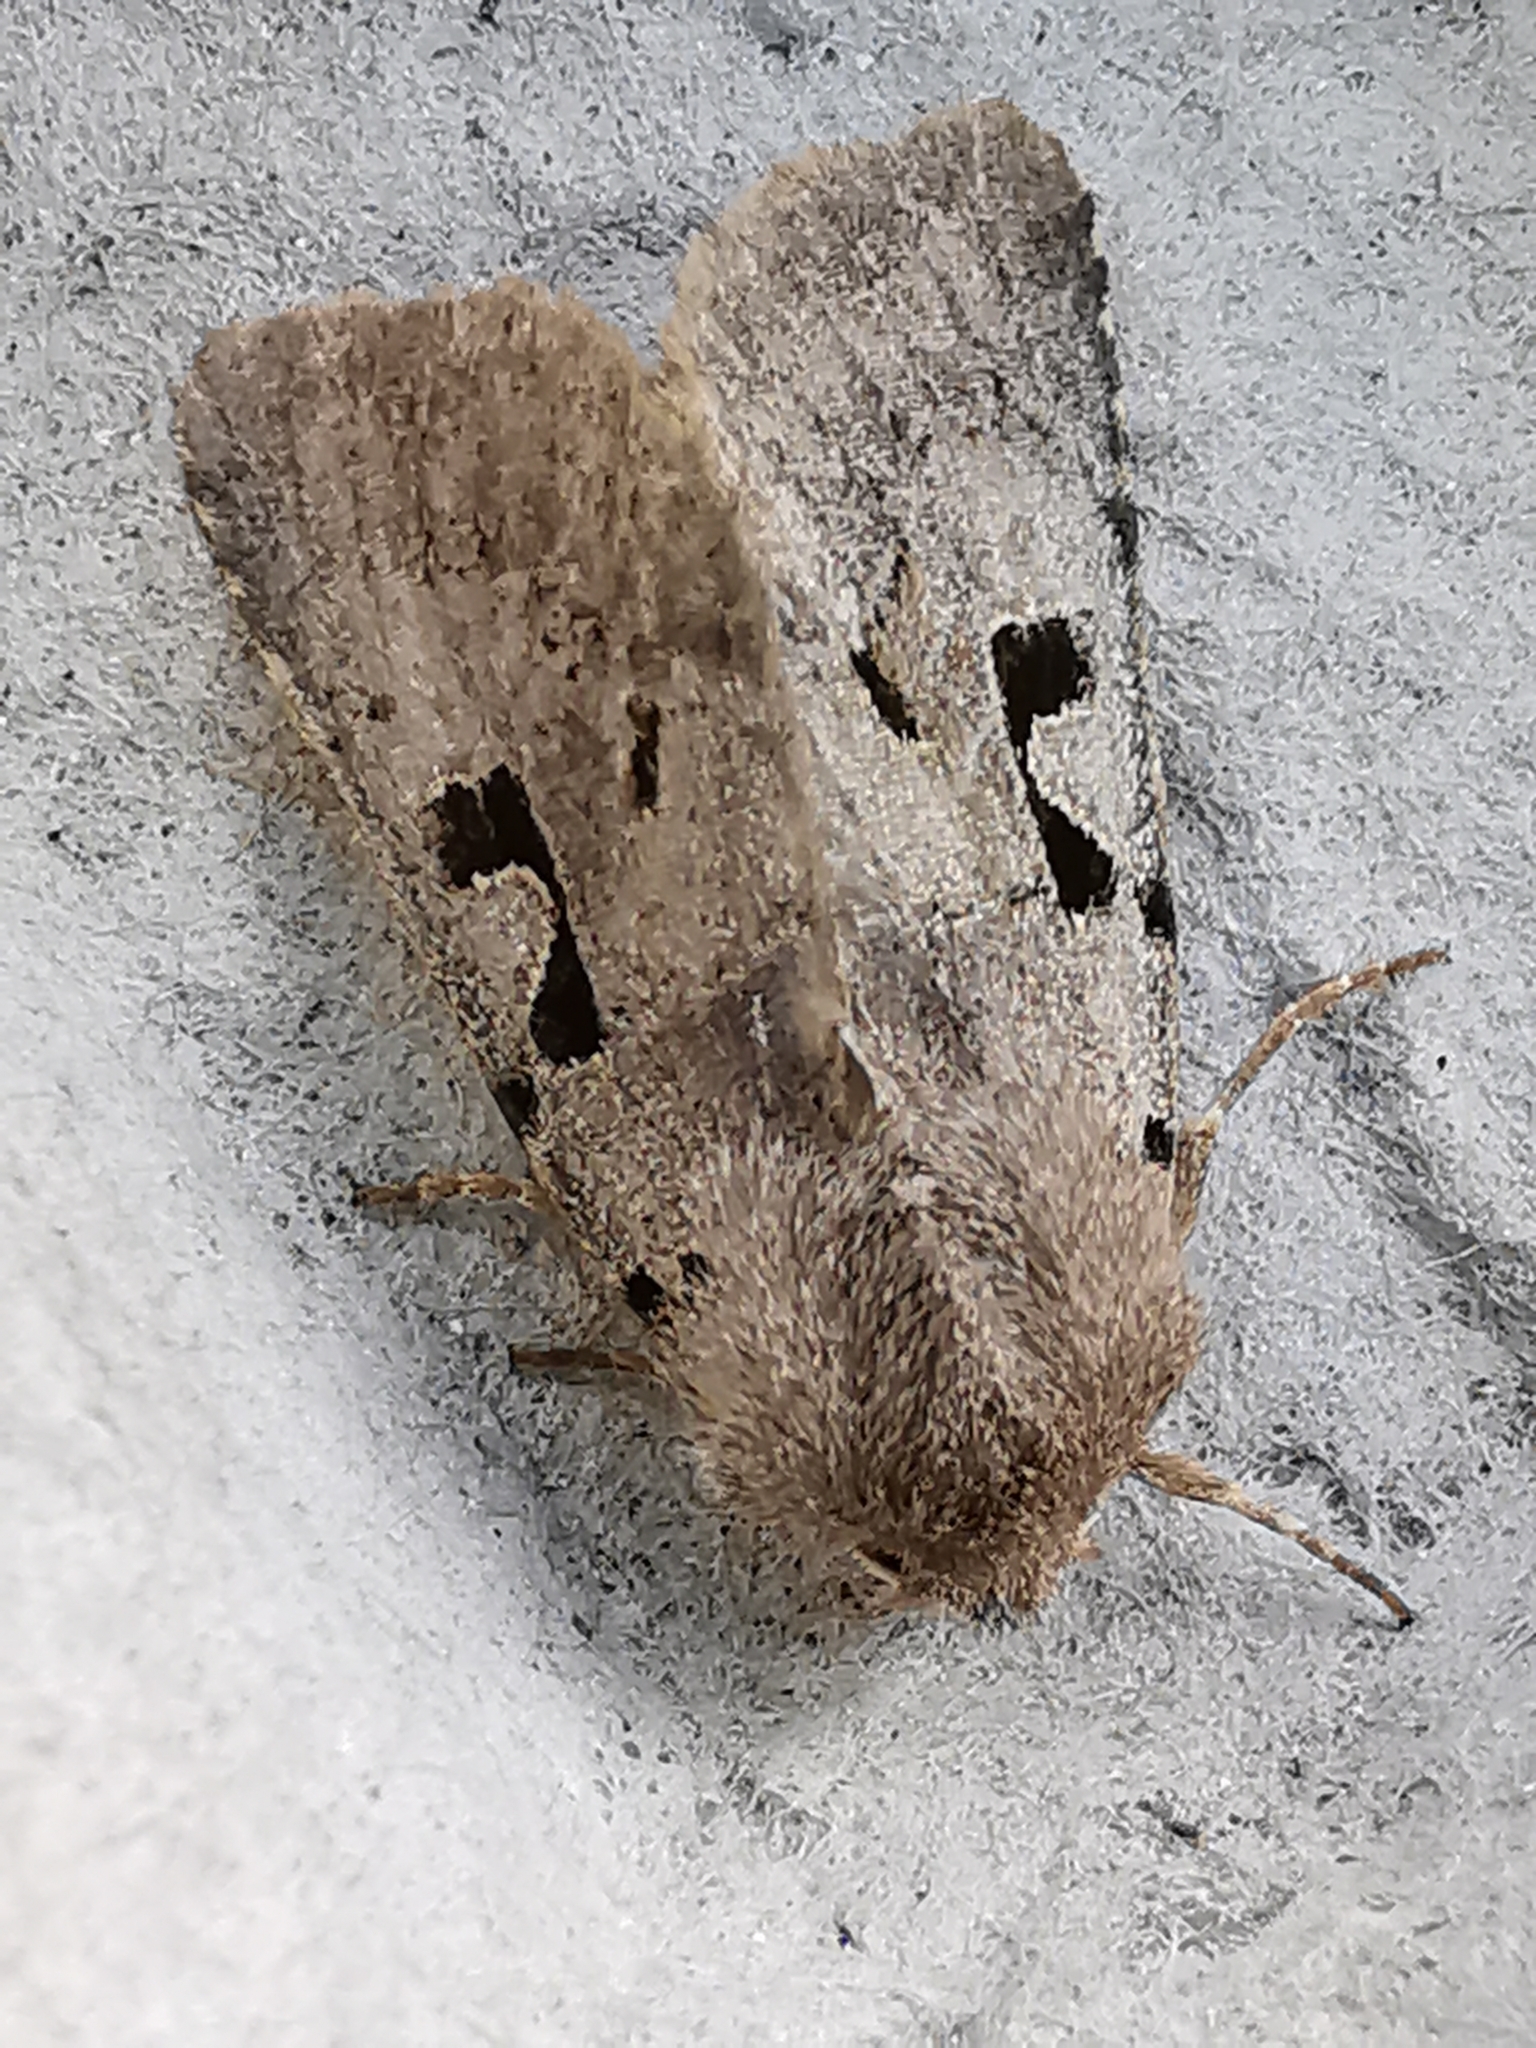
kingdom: Animalia
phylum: Arthropoda
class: Insecta
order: Lepidoptera
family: Noctuidae
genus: Orthosia
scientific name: Orthosia gothica
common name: Hebrew character
